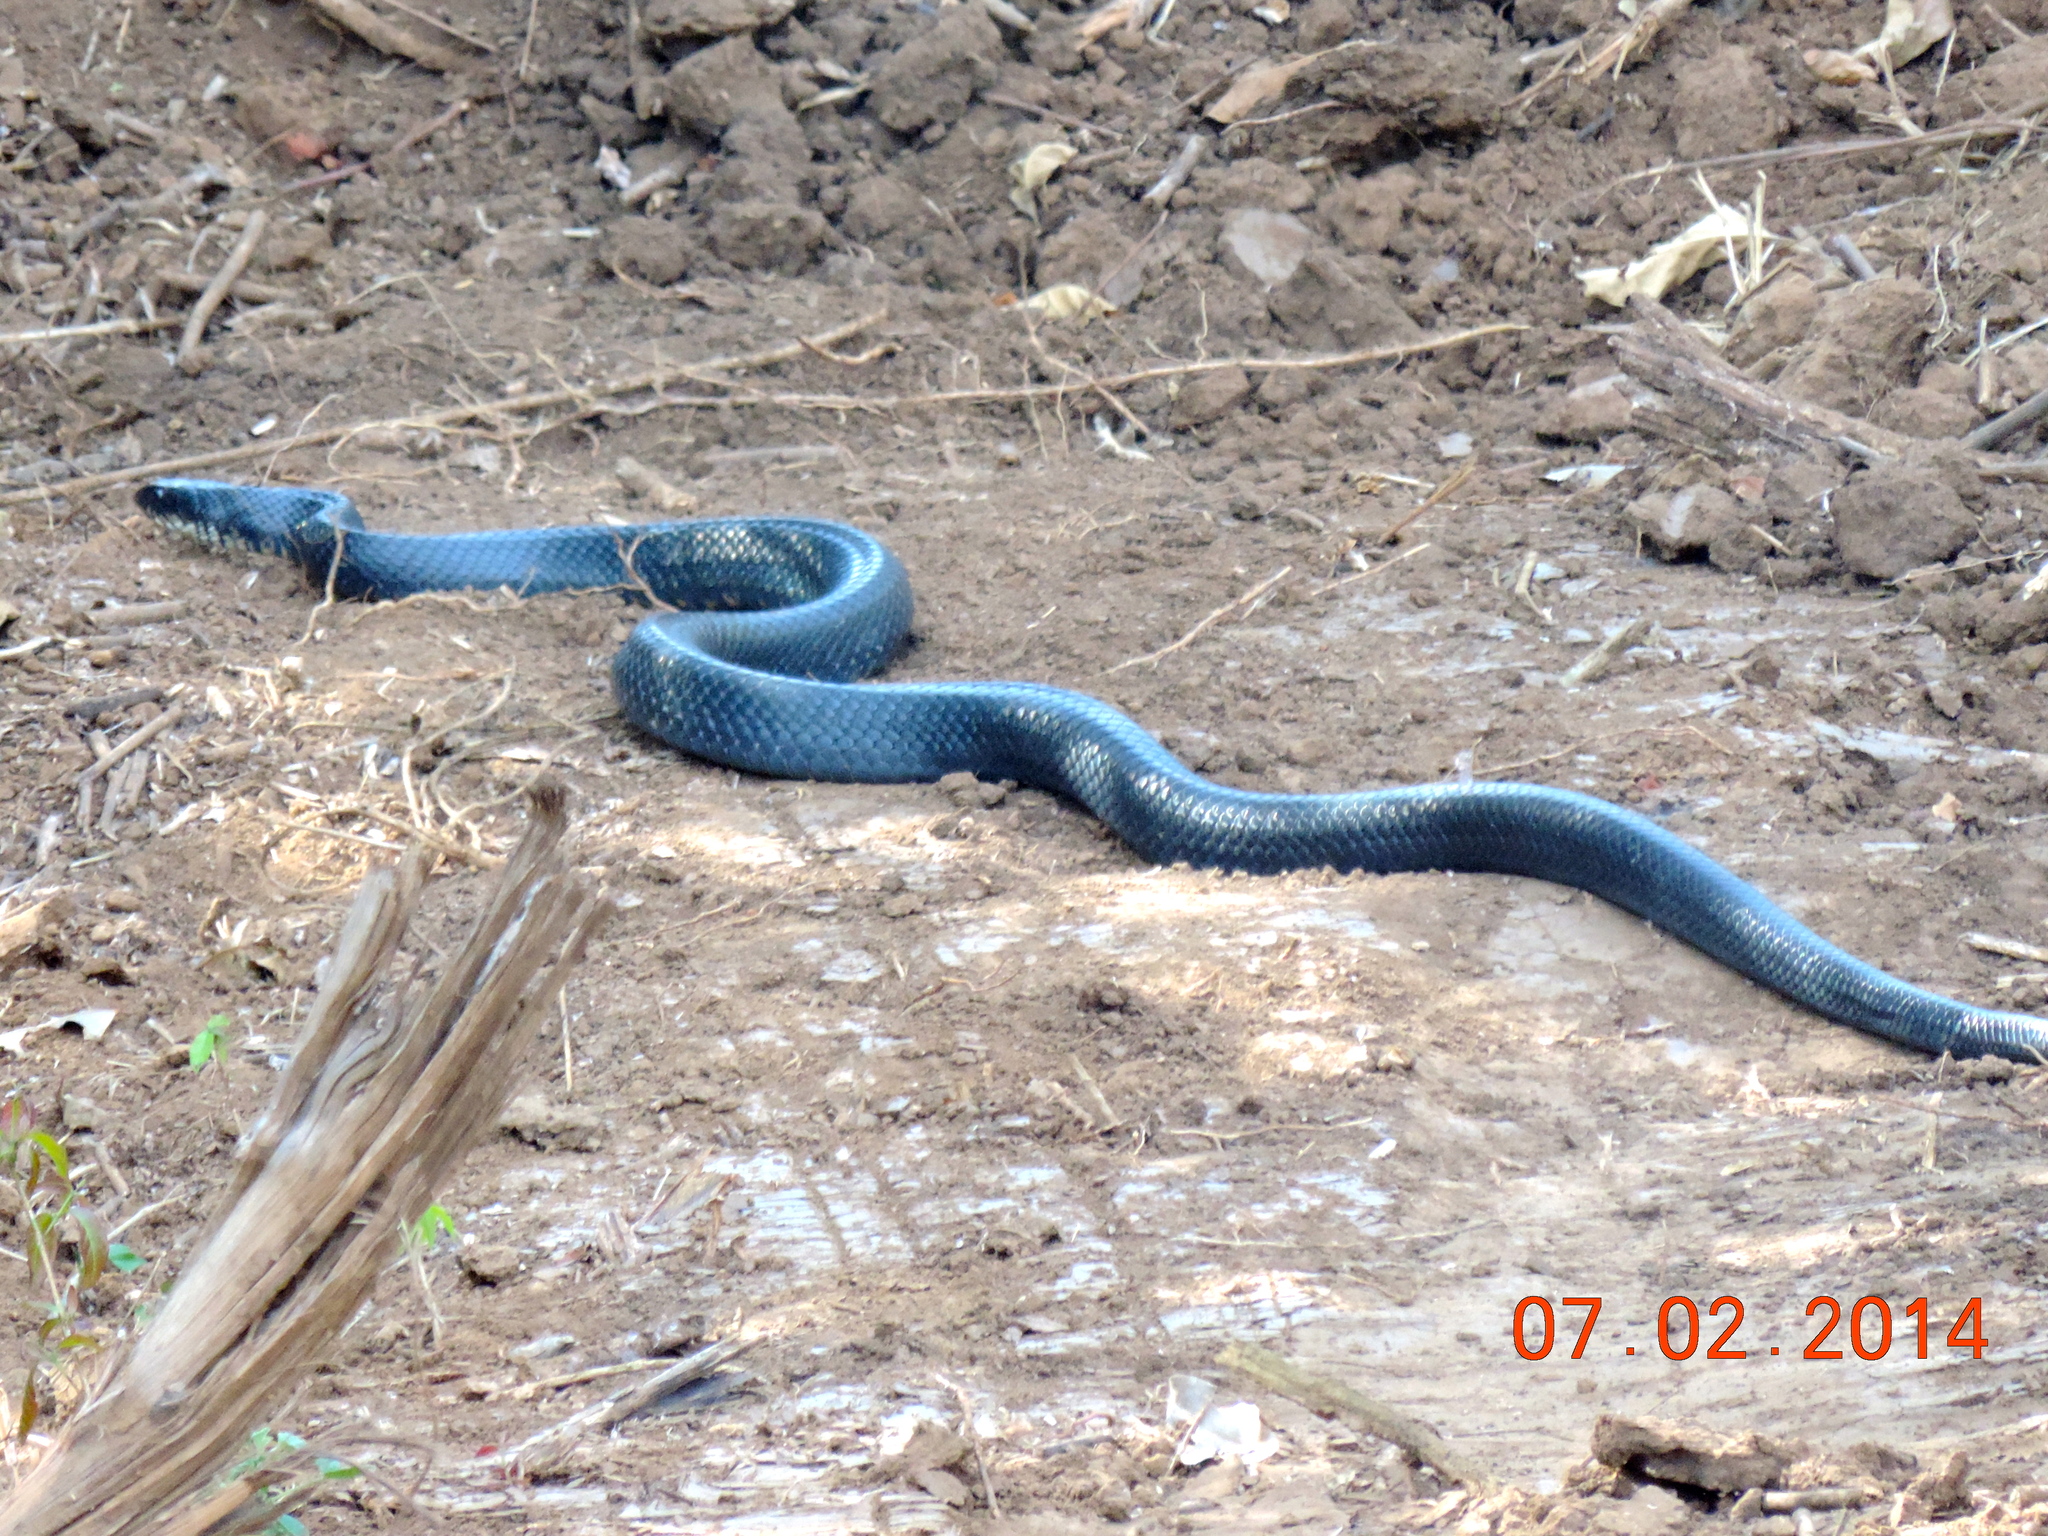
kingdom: Animalia
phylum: Chordata
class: Squamata
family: Colubridae
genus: Drymarchon
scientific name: Drymarchon melanurus
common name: Central american indigo snake
